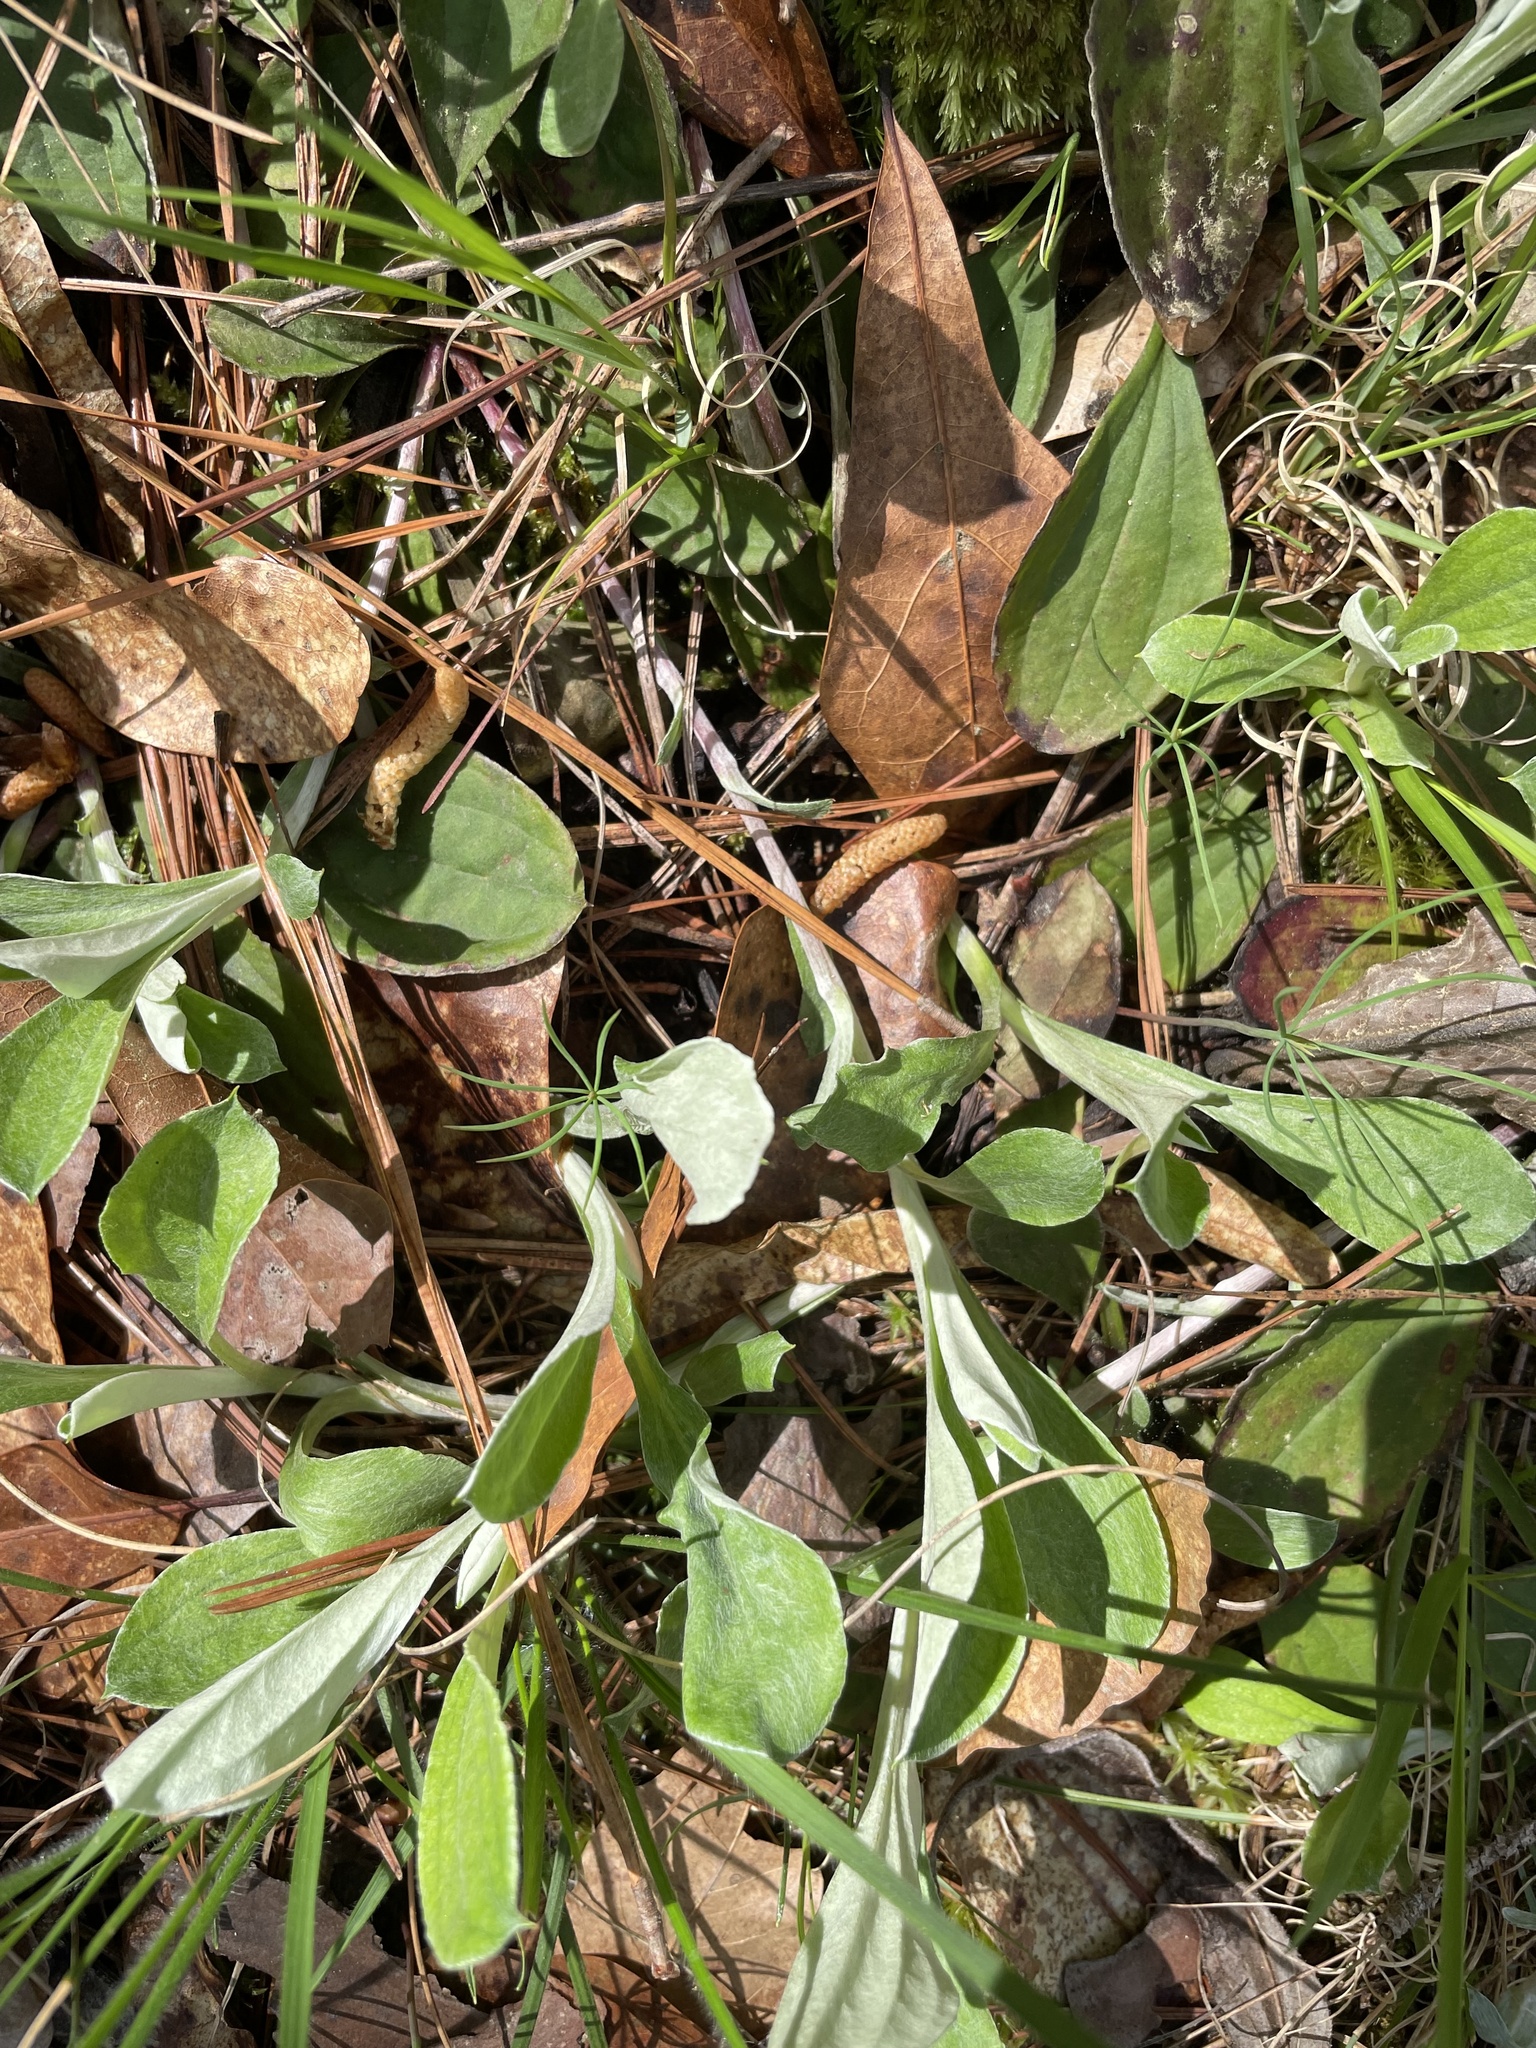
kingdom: Plantae
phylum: Tracheophyta
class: Magnoliopsida
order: Asterales
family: Asteraceae
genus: Antennaria
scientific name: Antennaria parlinii
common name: Parlin's pussytoes
